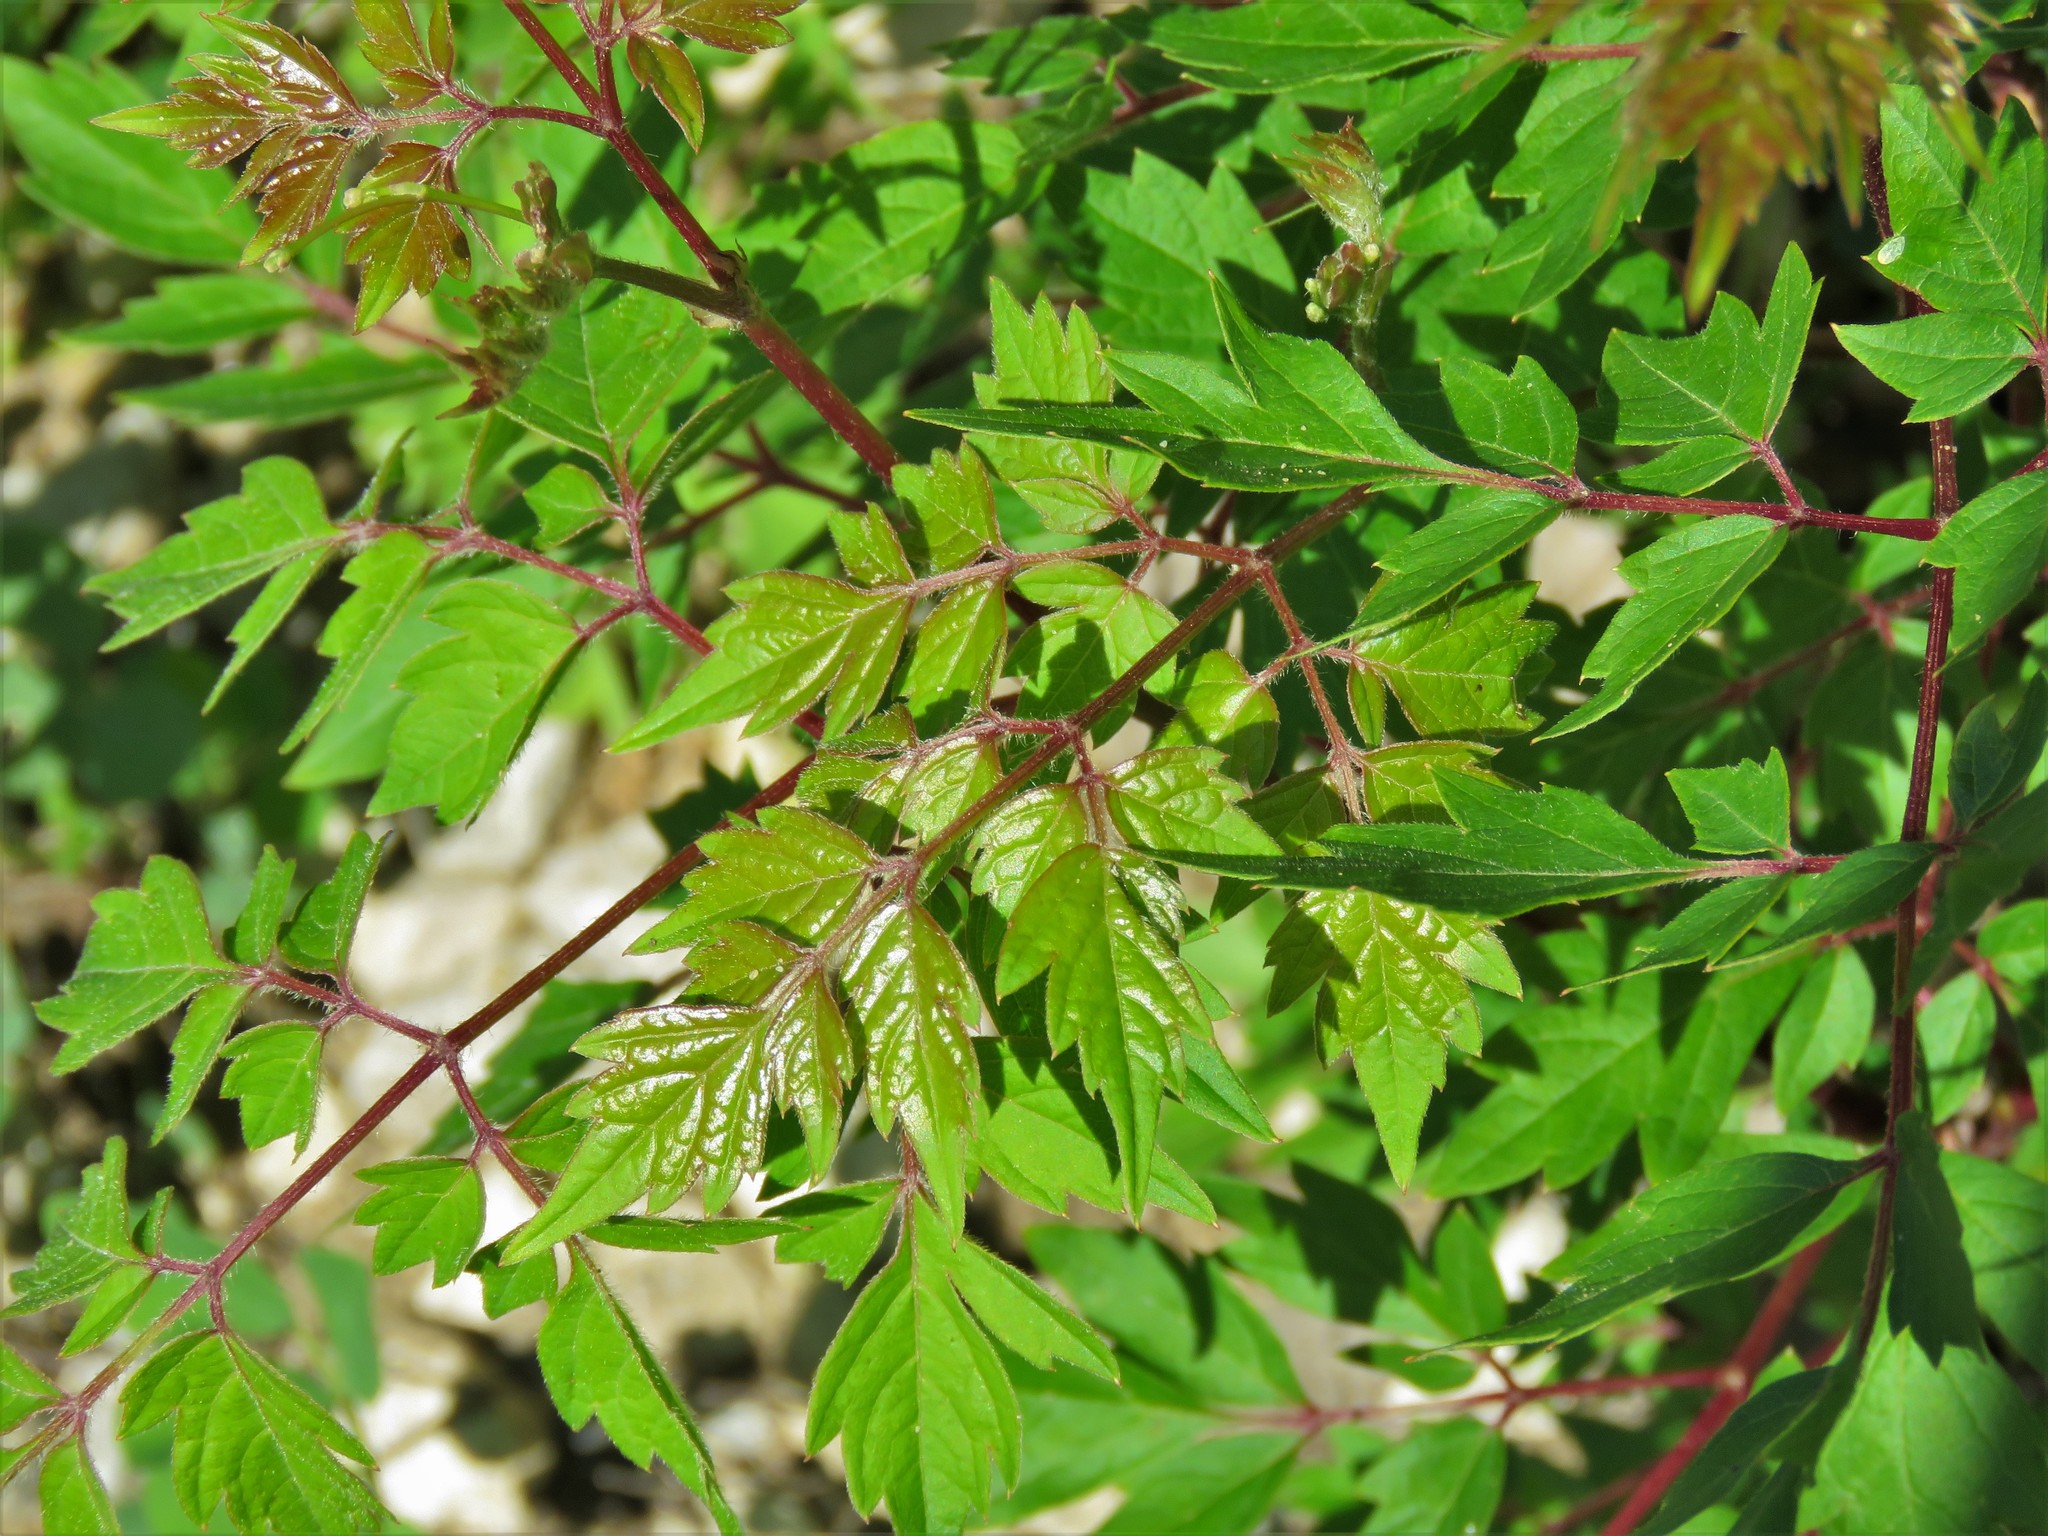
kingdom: Plantae
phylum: Tracheophyta
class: Magnoliopsida
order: Vitales
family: Vitaceae
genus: Nekemias
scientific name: Nekemias arborea
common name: Peppervine
